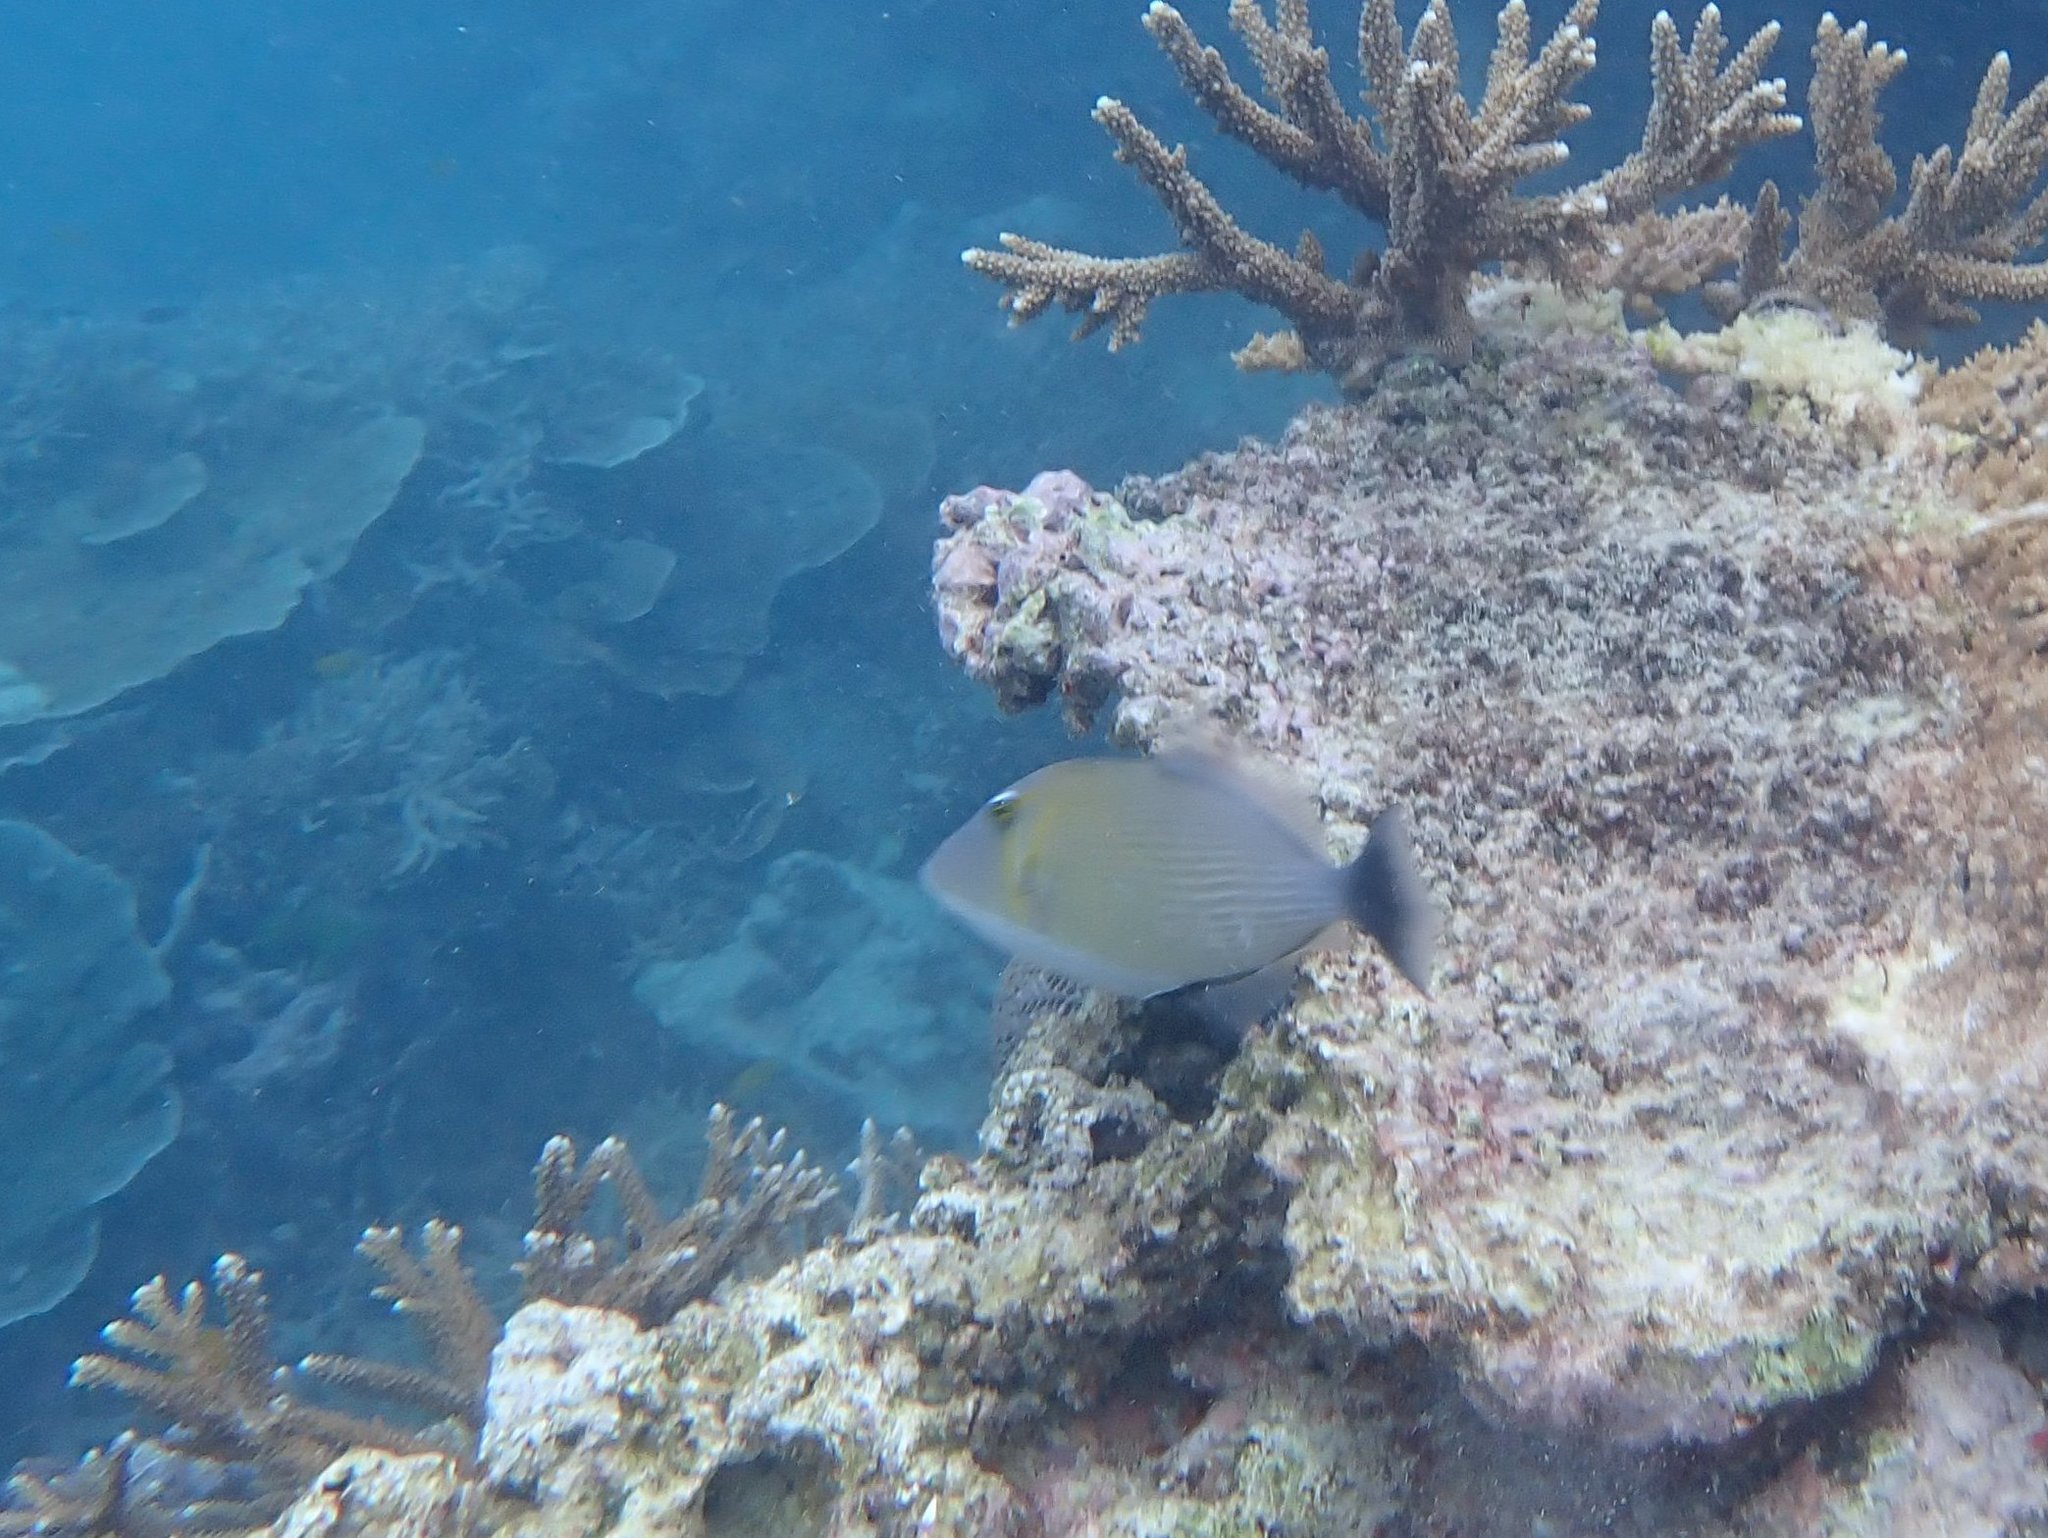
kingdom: Animalia
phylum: Chordata
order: Tetraodontiformes
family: Balistidae
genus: Sufflamen
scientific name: Sufflamen bursa
